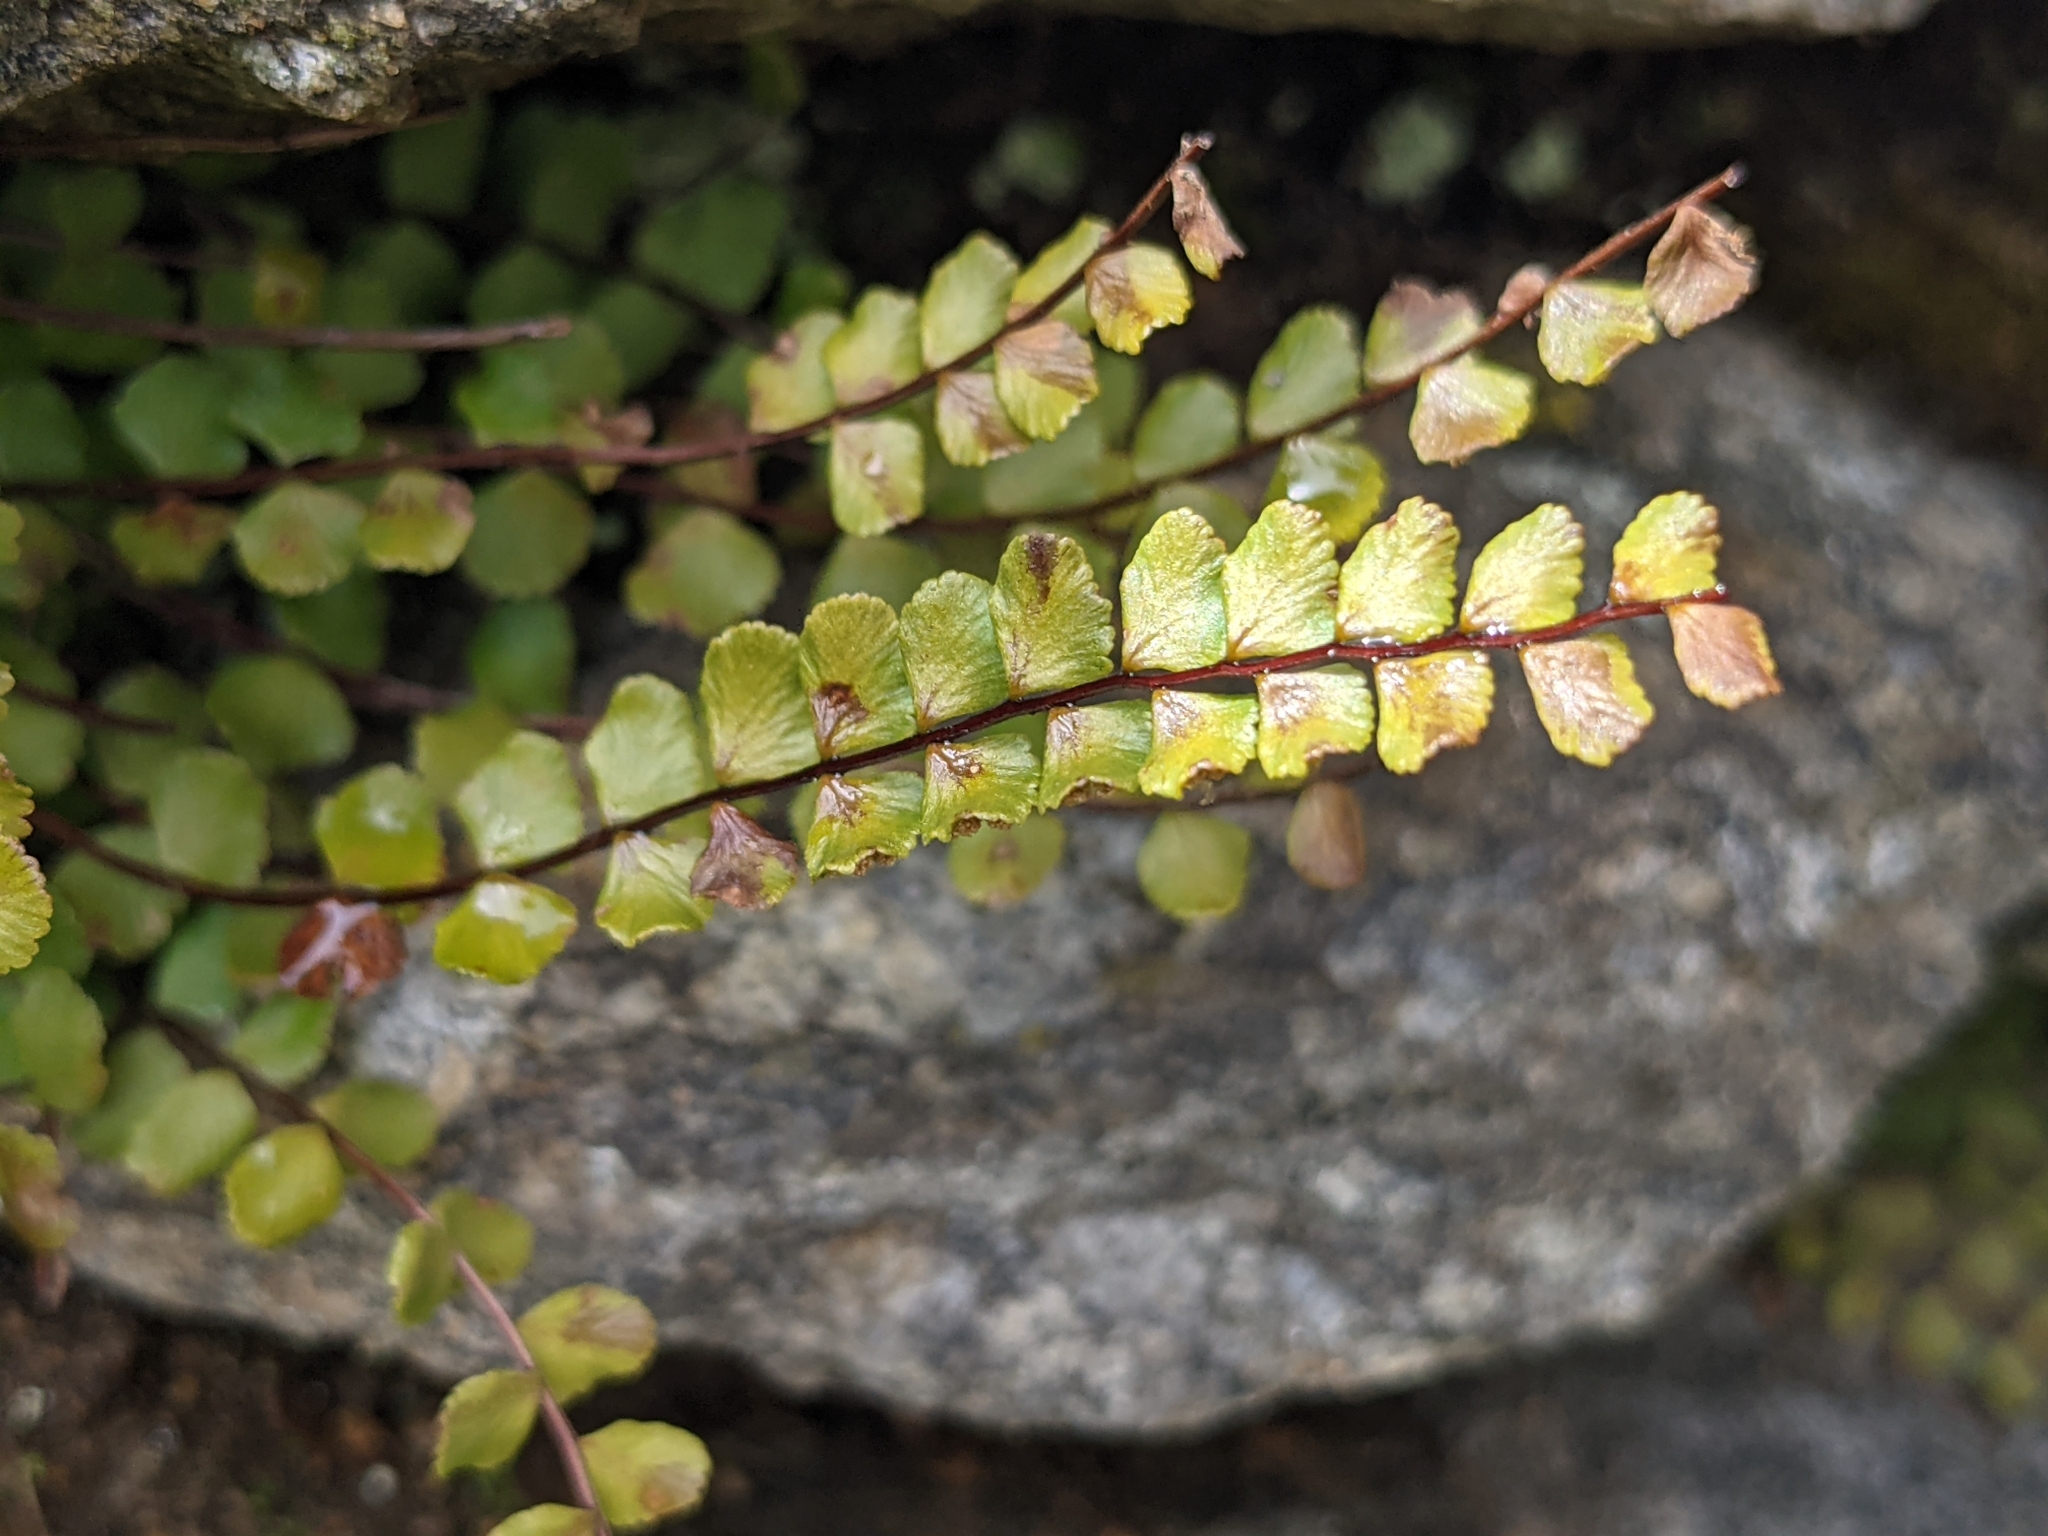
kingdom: Plantae
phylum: Tracheophyta
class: Polypodiopsida
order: Polypodiales
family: Aspleniaceae
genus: Asplenium
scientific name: Asplenium trichomanes
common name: Maidenhair spleenwort
